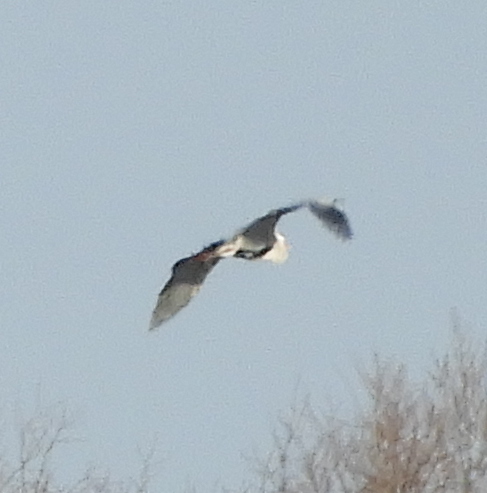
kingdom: Animalia
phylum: Chordata
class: Aves
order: Pelecaniformes
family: Ardeidae
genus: Ardea
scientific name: Ardea cinerea
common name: Grey heron
